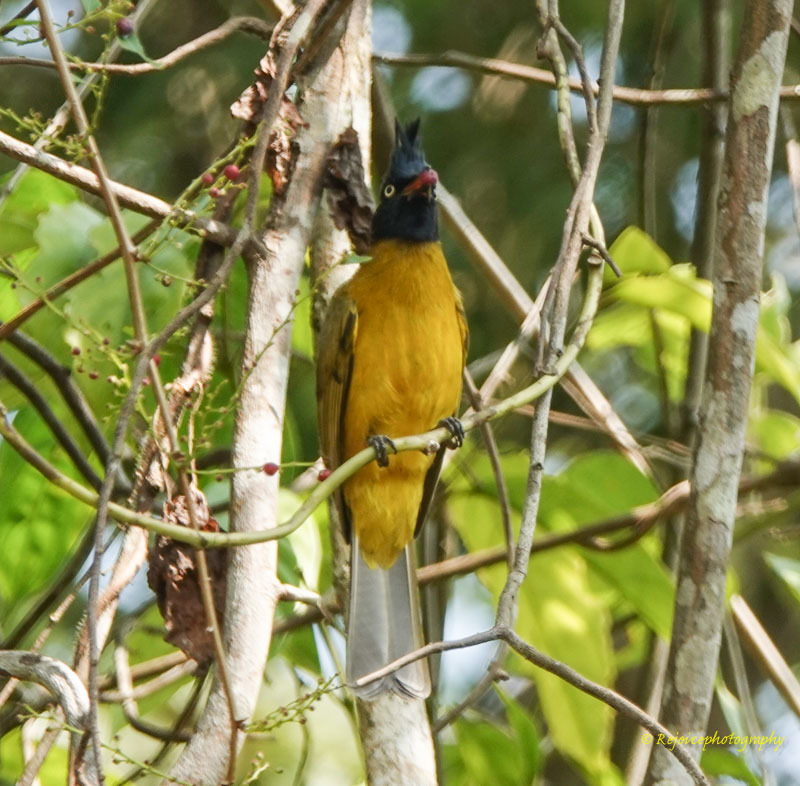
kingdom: Animalia
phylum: Chordata
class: Aves
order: Passeriformes
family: Pycnonotidae
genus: Pycnonotus
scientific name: Pycnonotus flaviventris
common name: Black-crested bulbul
